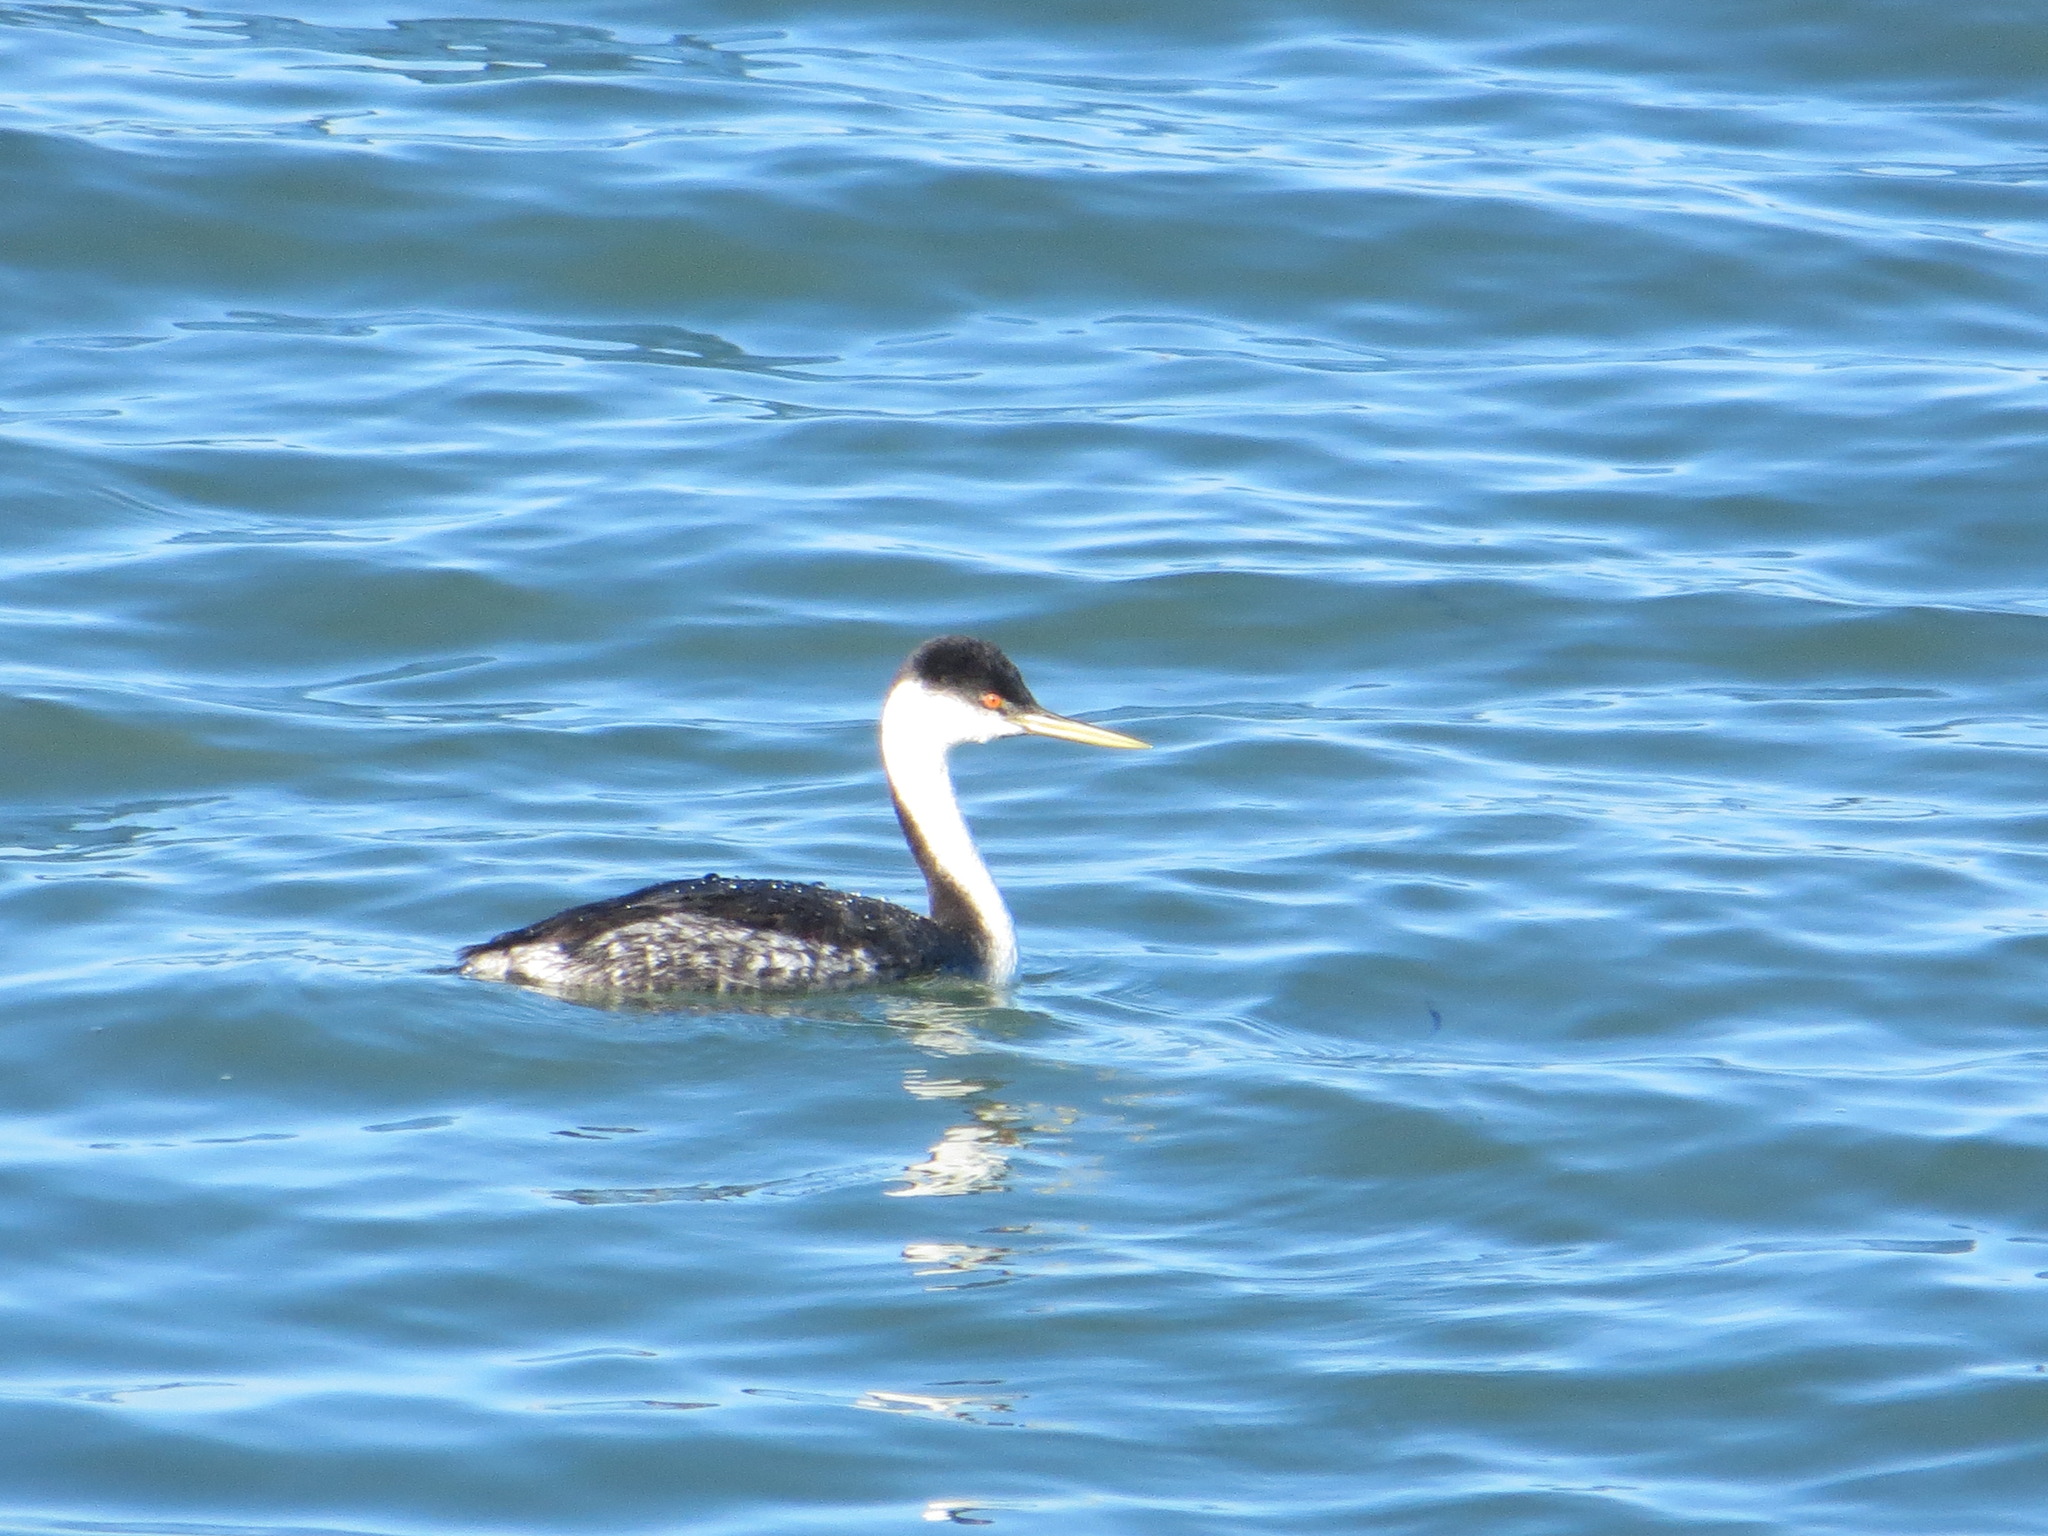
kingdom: Animalia
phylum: Chordata
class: Aves
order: Podicipediformes
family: Podicipedidae
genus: Aechmophorus
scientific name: Aechmophorus occidentalis
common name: Western grebe
